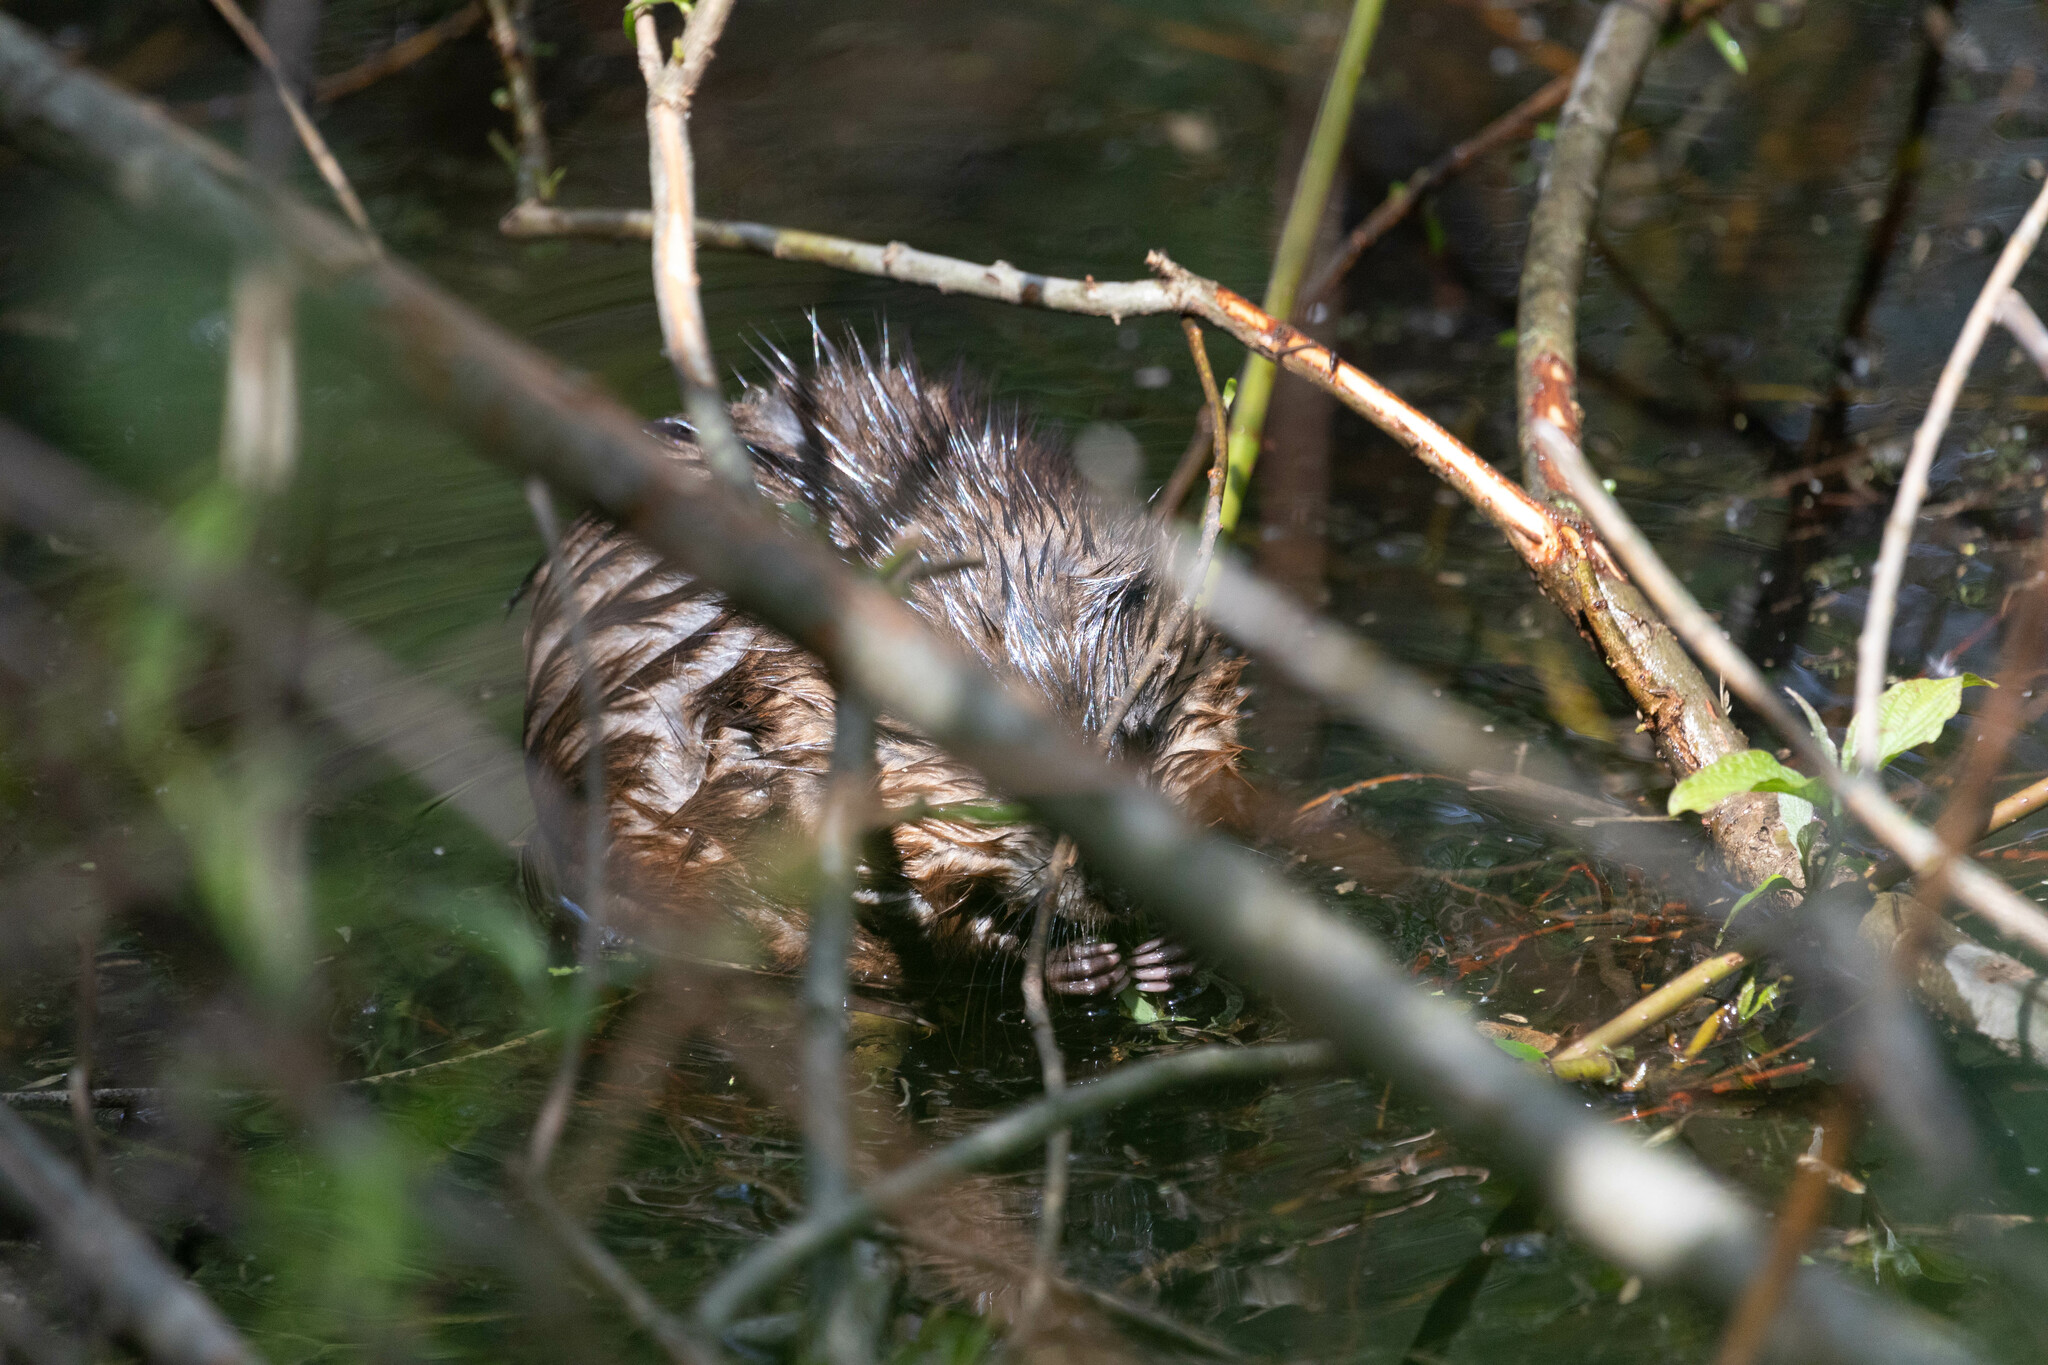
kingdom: Animalia
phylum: Chordata
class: Mammalia
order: Rodentia
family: Cricetidae
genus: Ondatra
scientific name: Ondatra zibethicus
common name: Muskrat
